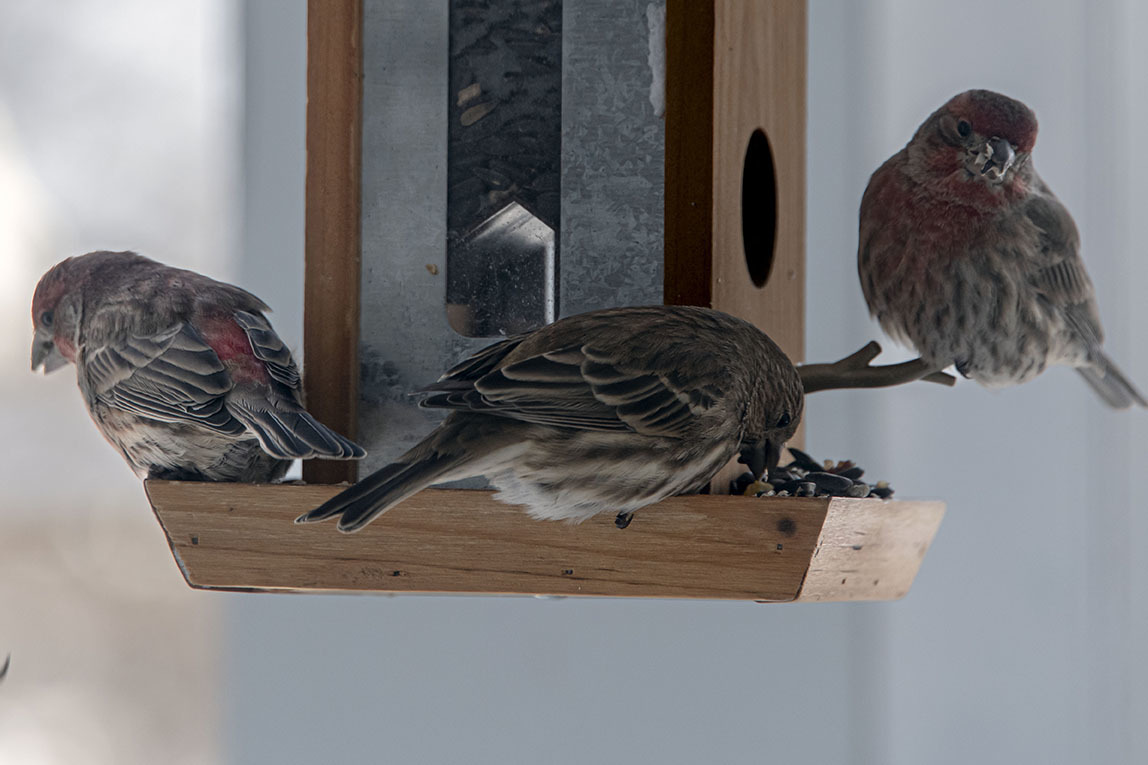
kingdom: Animalia
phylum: Chordata
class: Aves
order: Passeriformes
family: Fringillidae
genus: Haemorhous
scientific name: Haemorhous mexicanus
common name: House finch
